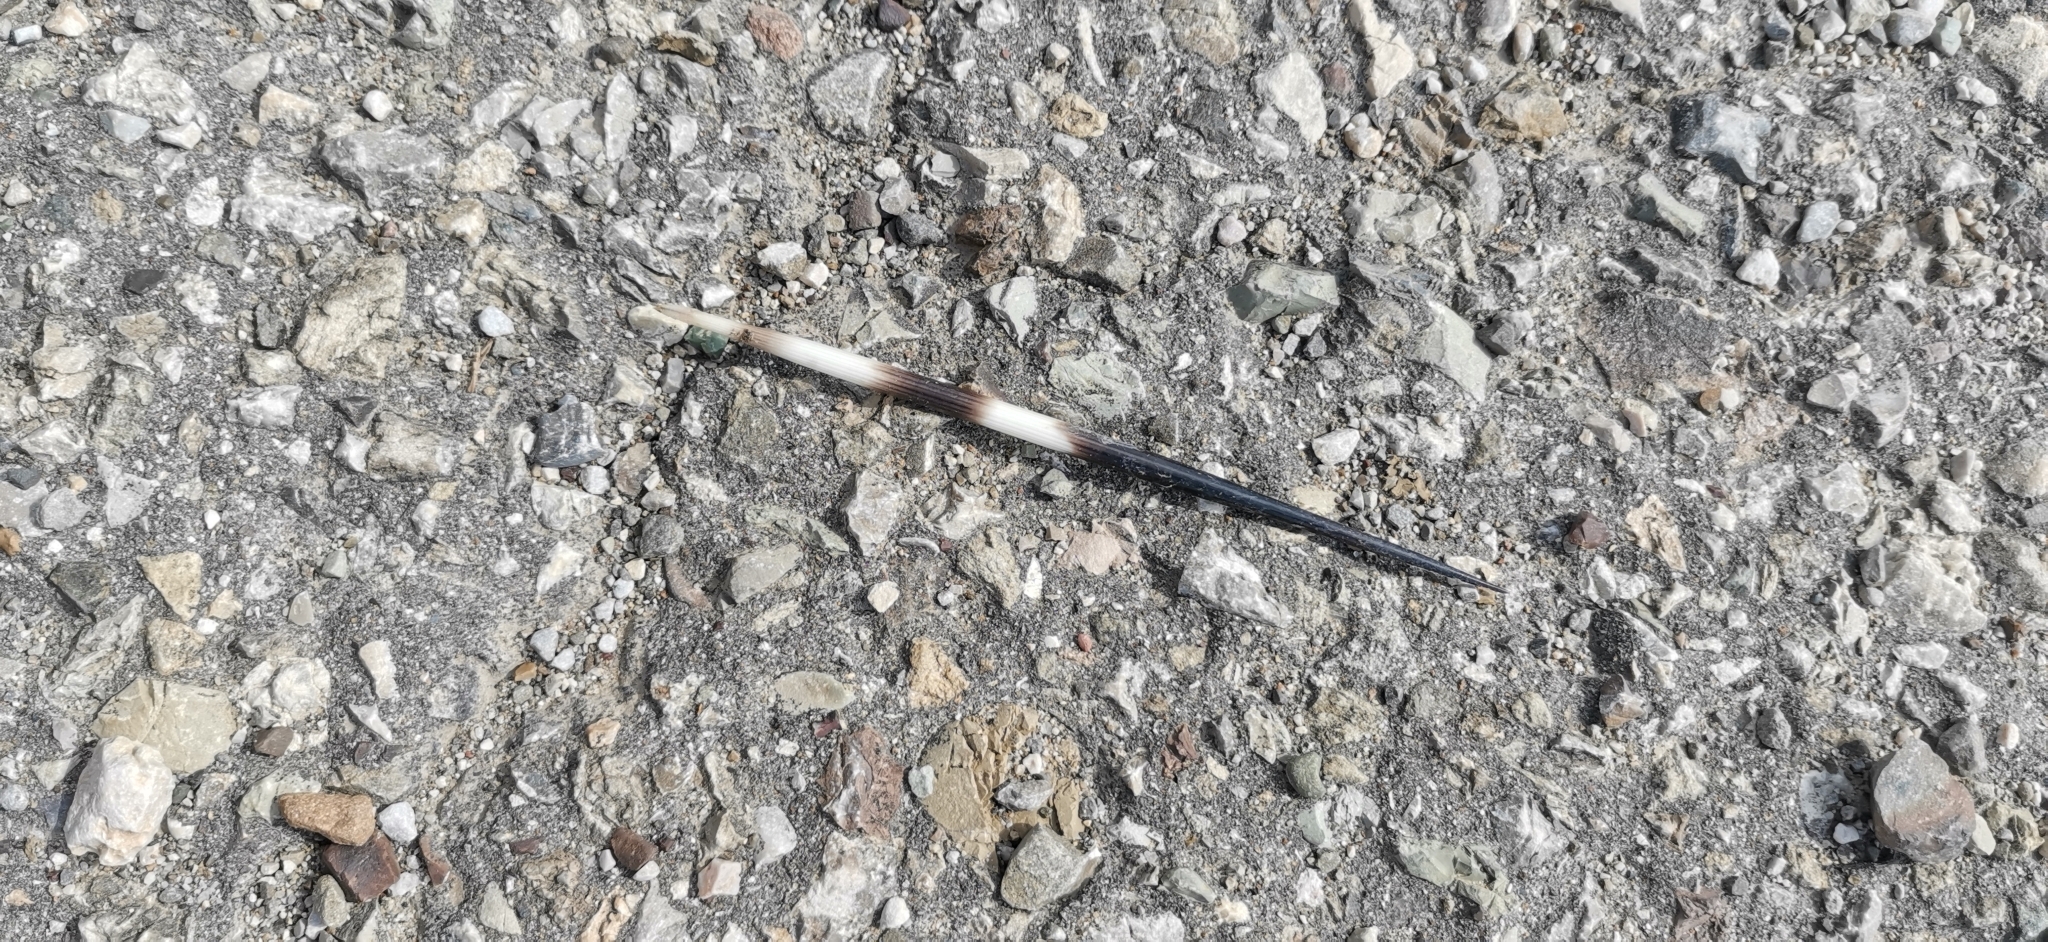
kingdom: Animalia
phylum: Chordata
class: Mammalia
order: Rodentia
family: Hystricidae
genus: Hystrix
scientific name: Hystrix cristata
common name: Crested porcupine
